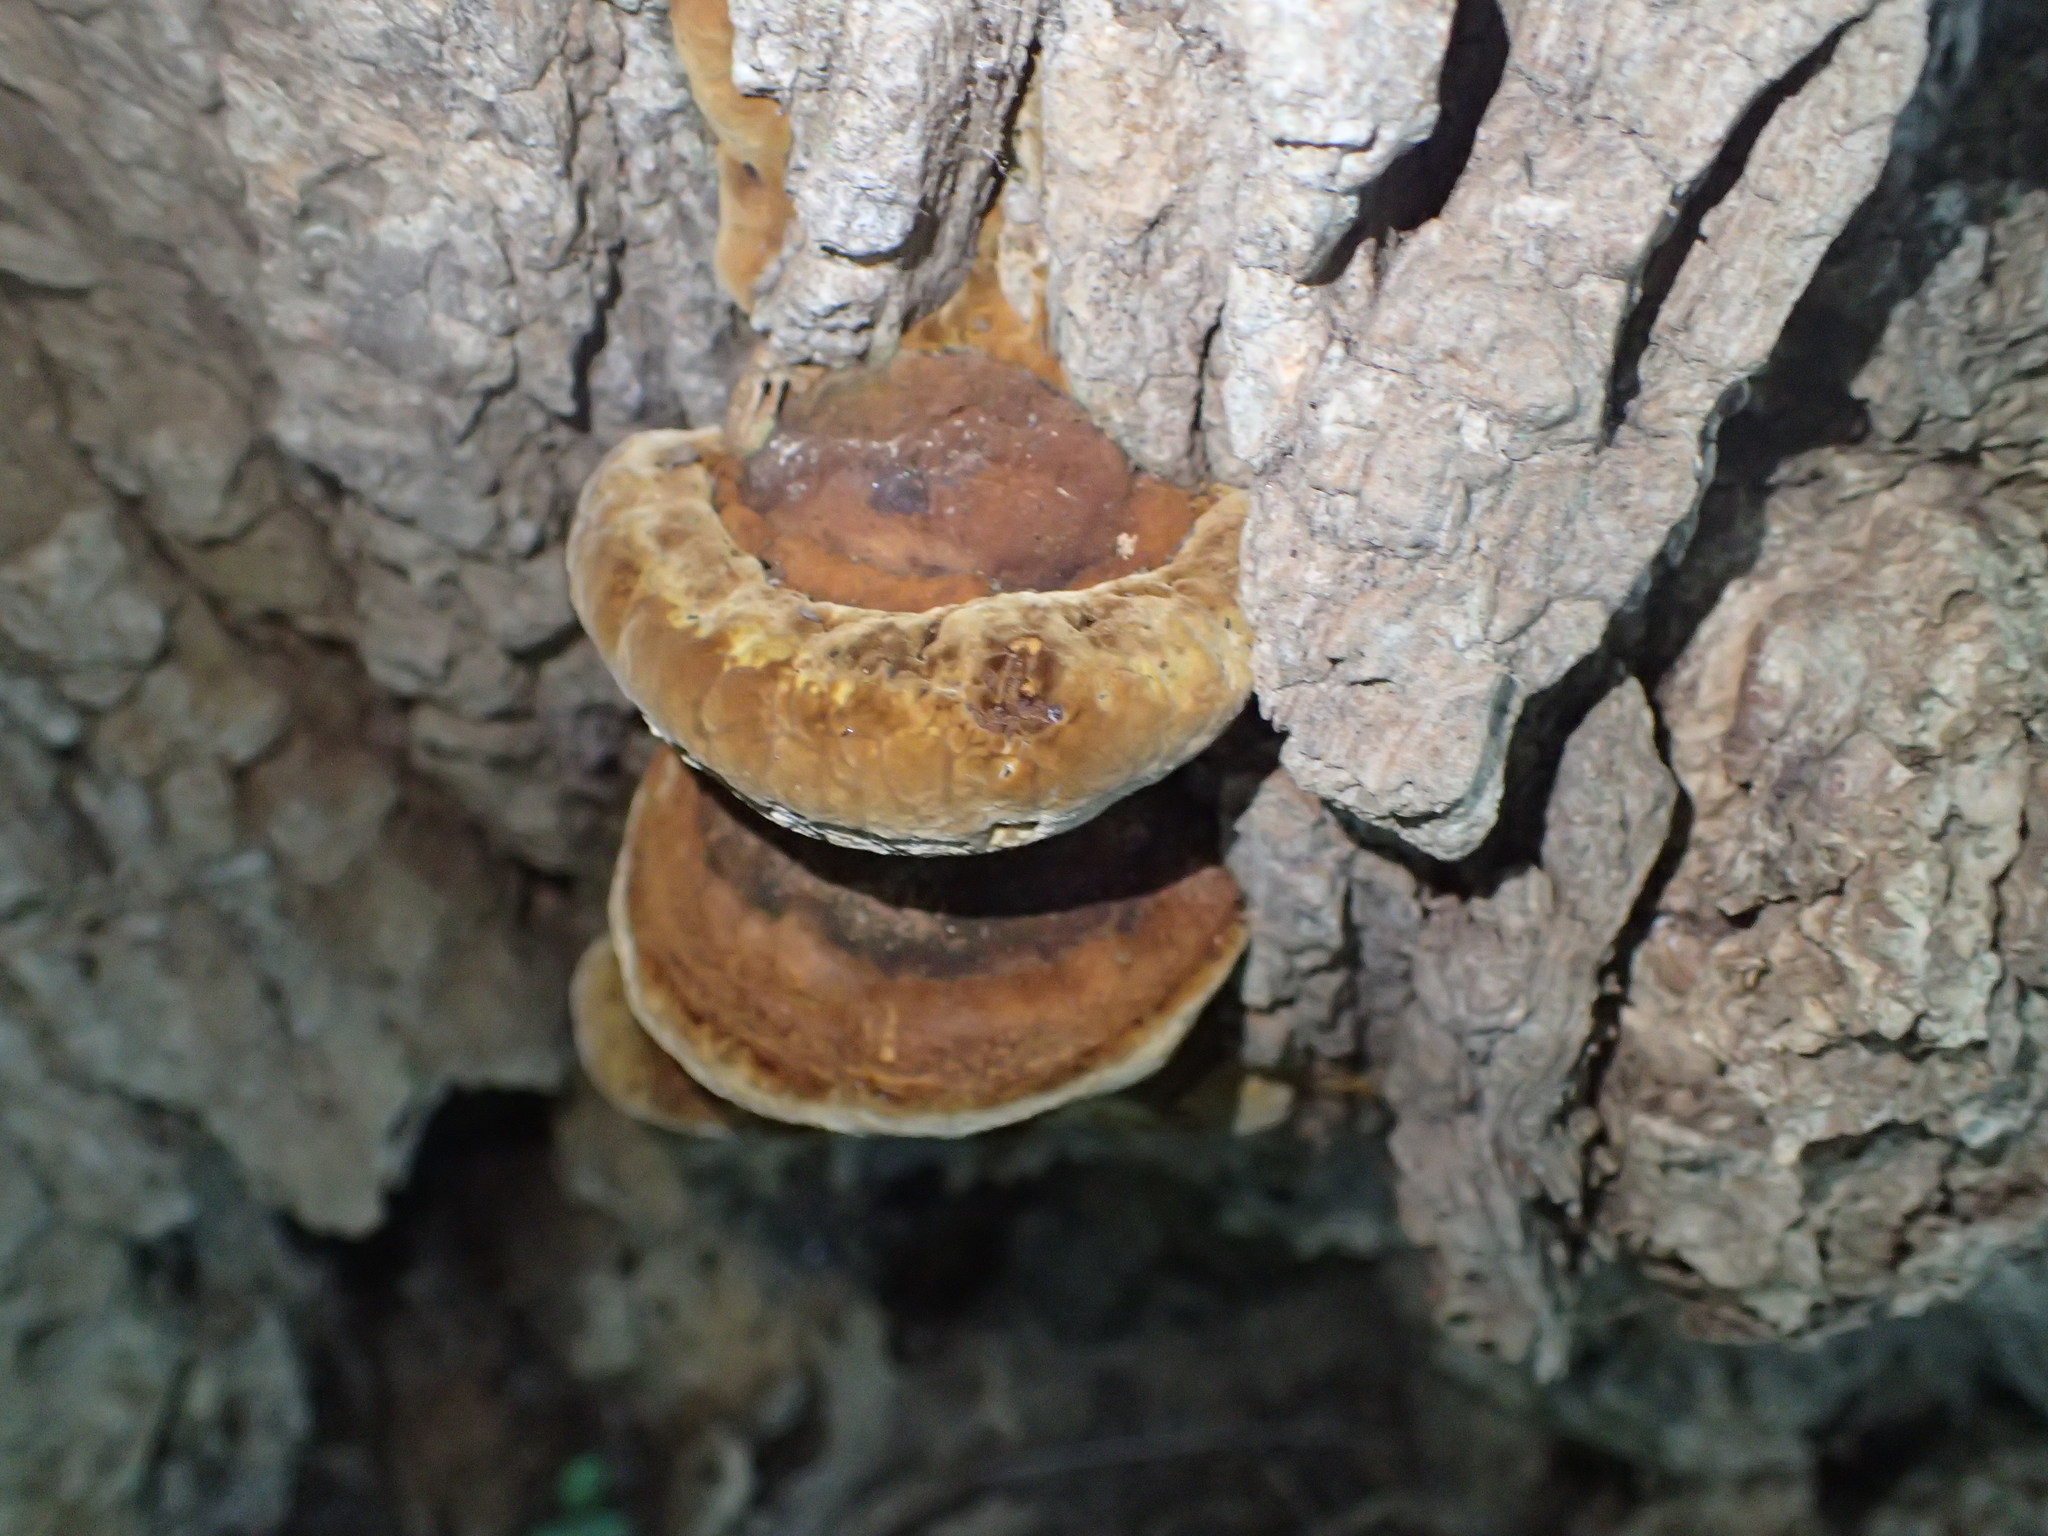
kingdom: Fungi
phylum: Basidiomycota
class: Agaricomycetes
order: Hymenochaetales
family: Hymenochaetaceae
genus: Phellinus
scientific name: Phellinus gilvus
